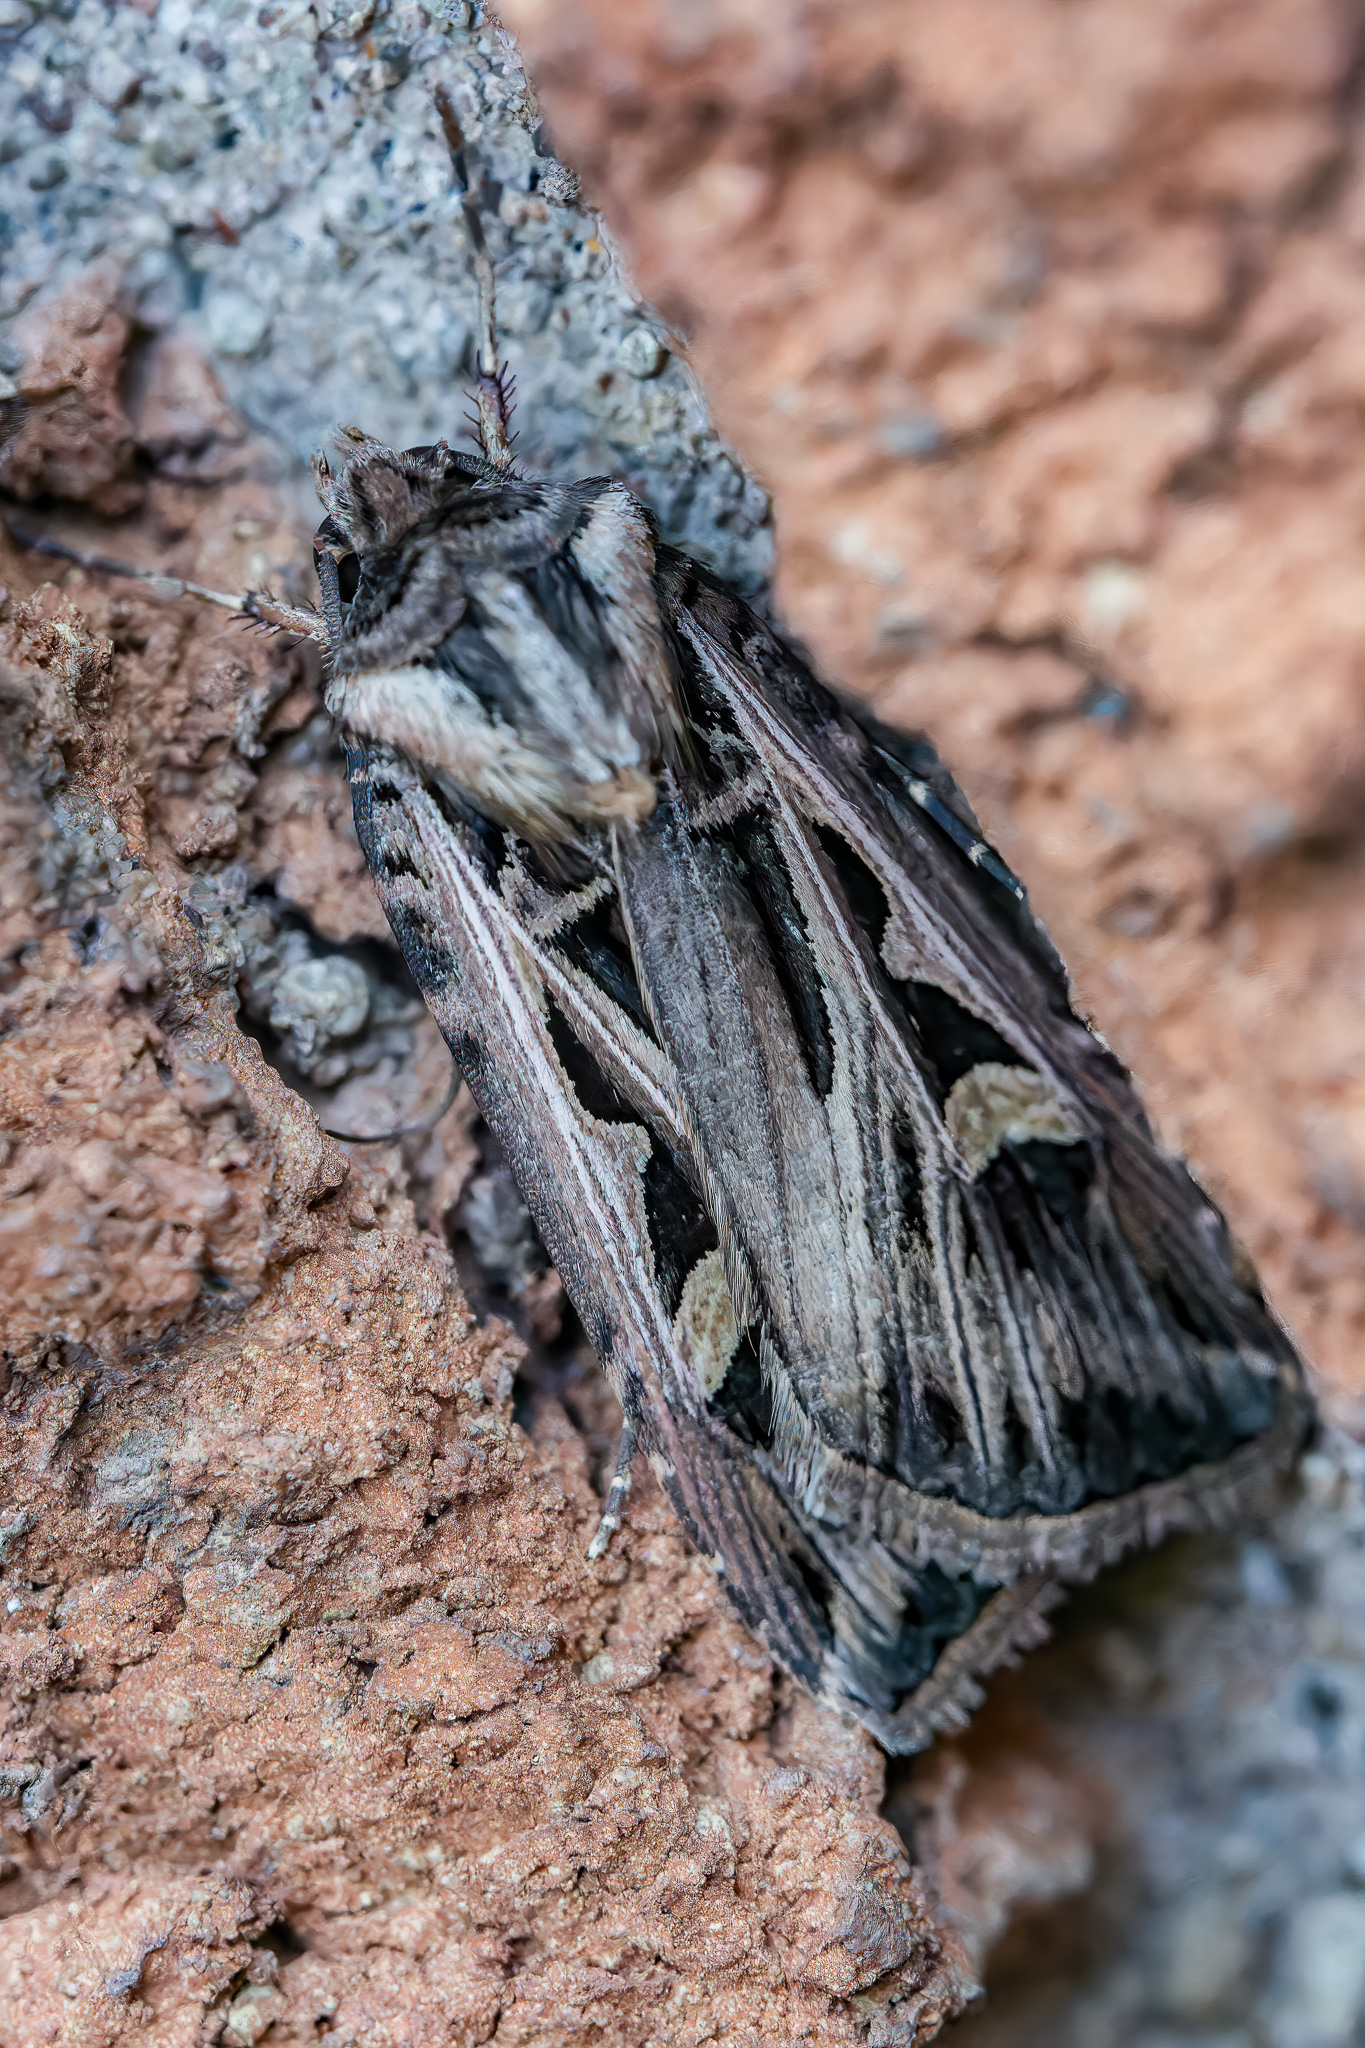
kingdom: Animalia
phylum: Arthropoda
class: Insecta
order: Lepidoptera
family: Noctuidae
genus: Feltia
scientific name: Feltia jaculifera
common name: Dingy cutworm moth
